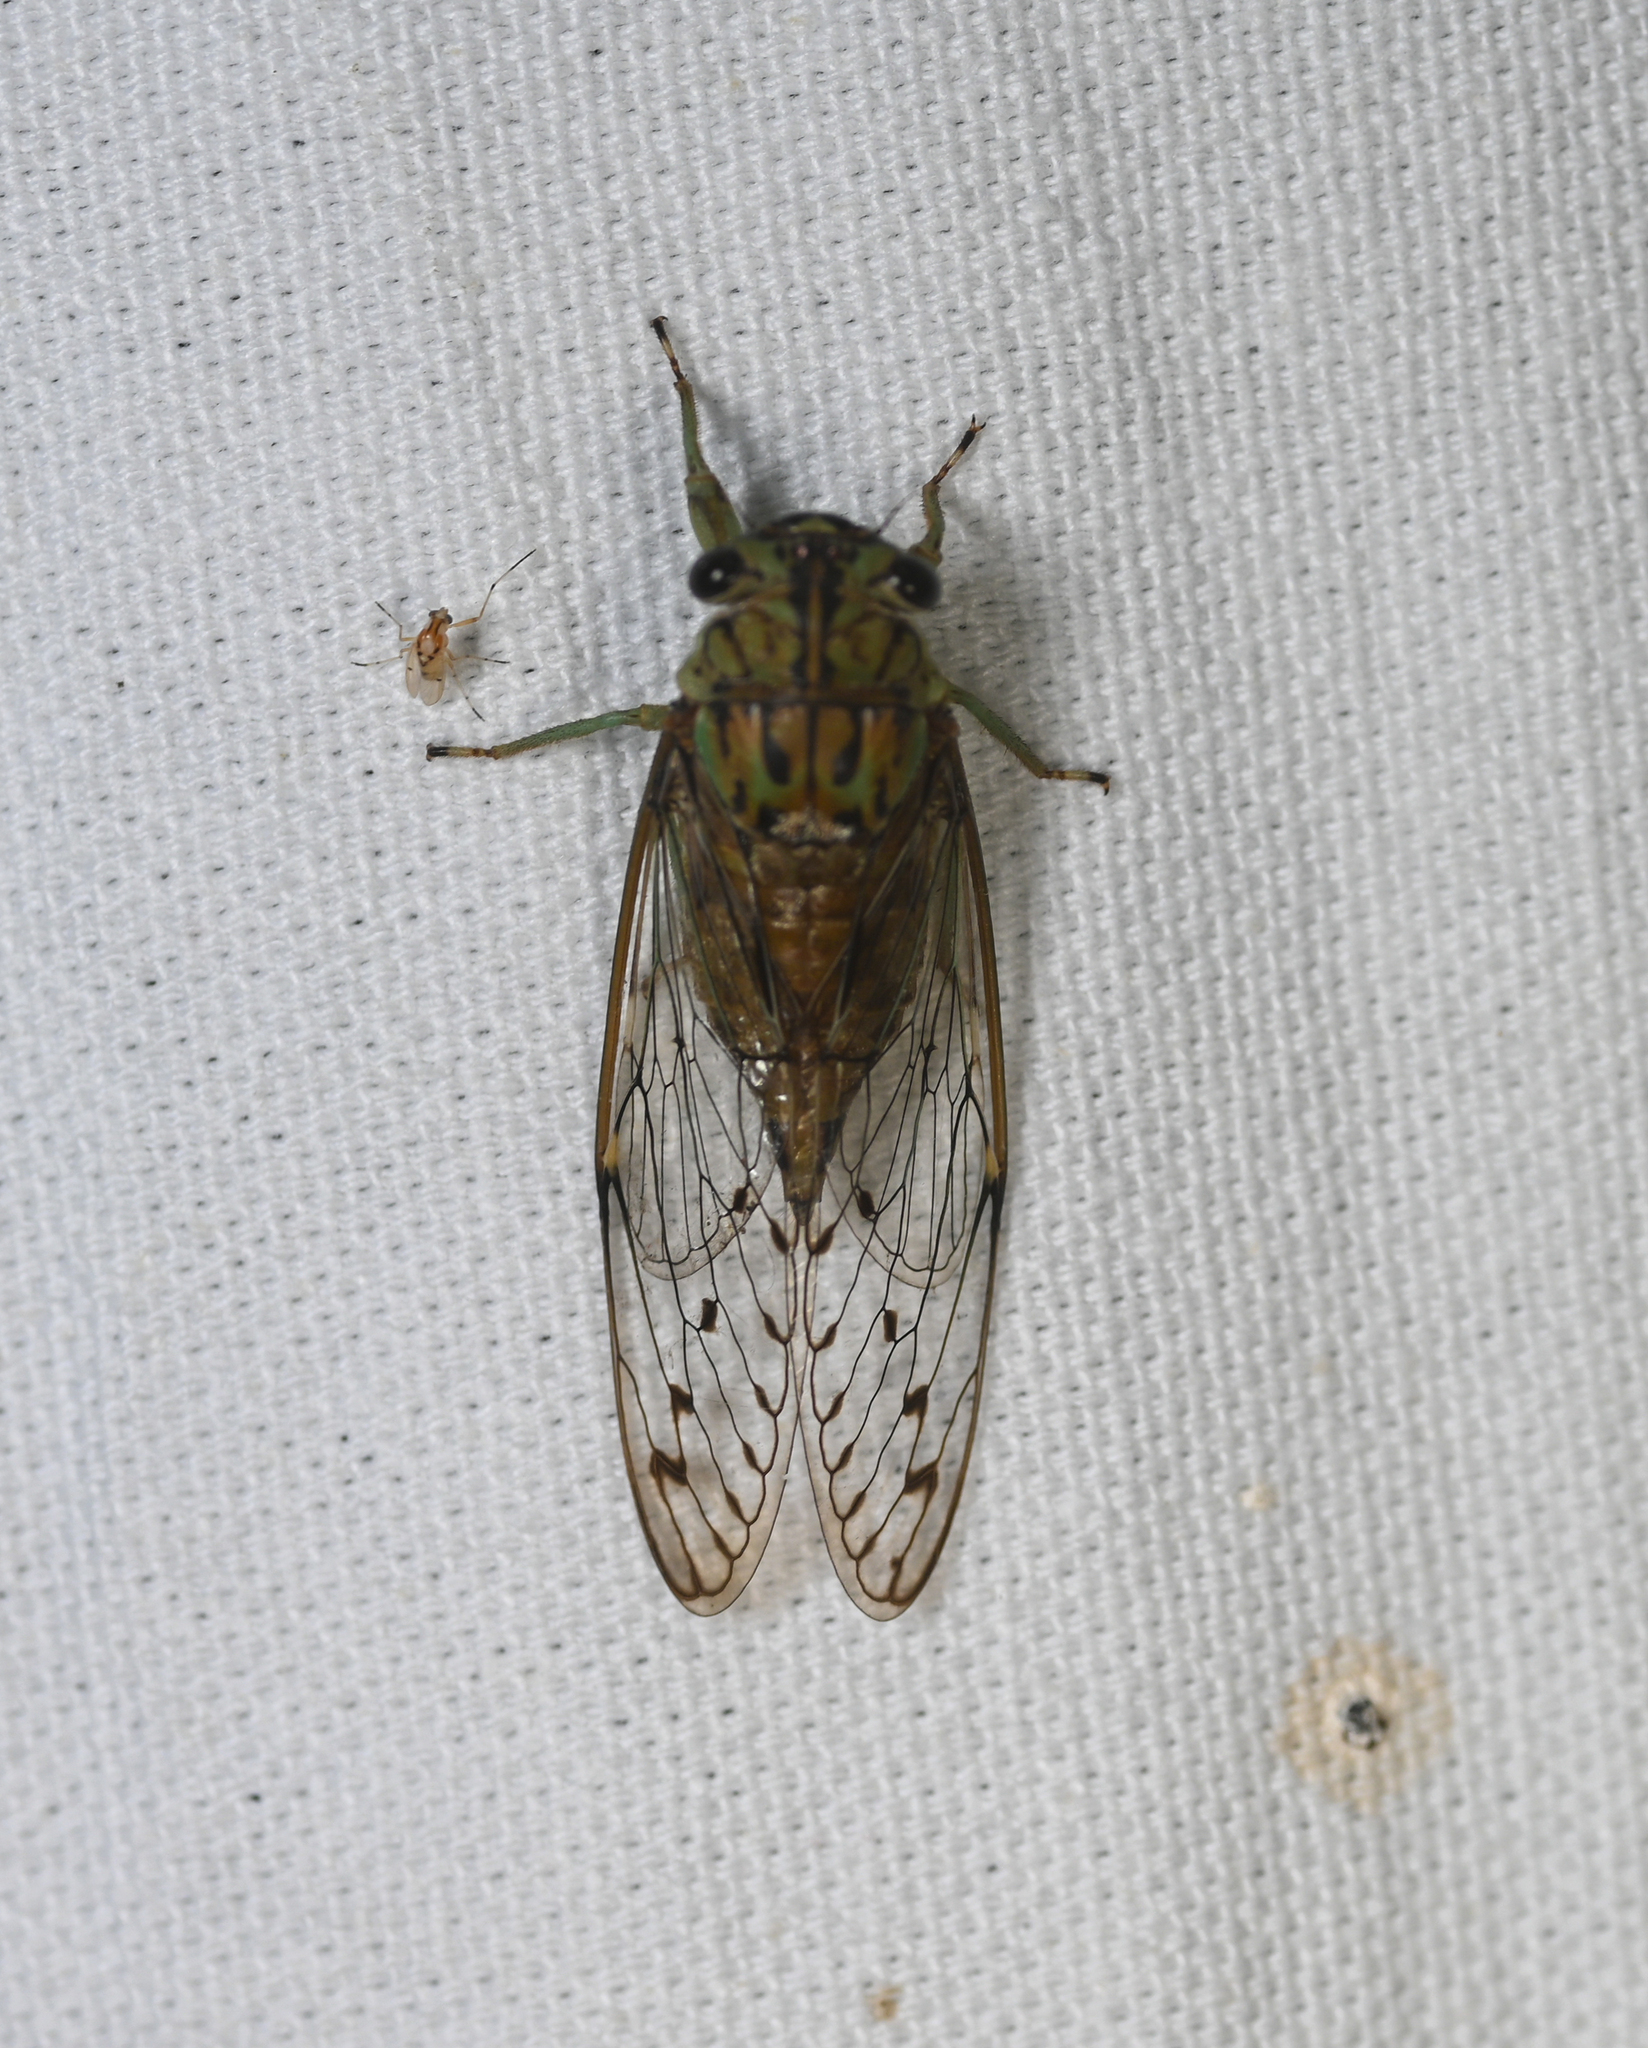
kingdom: Animalia
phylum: Arthropoda
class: Insecta
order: Hemiptera
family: Cicadidae
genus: Neocicada
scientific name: Neocicada hieroglyphica
